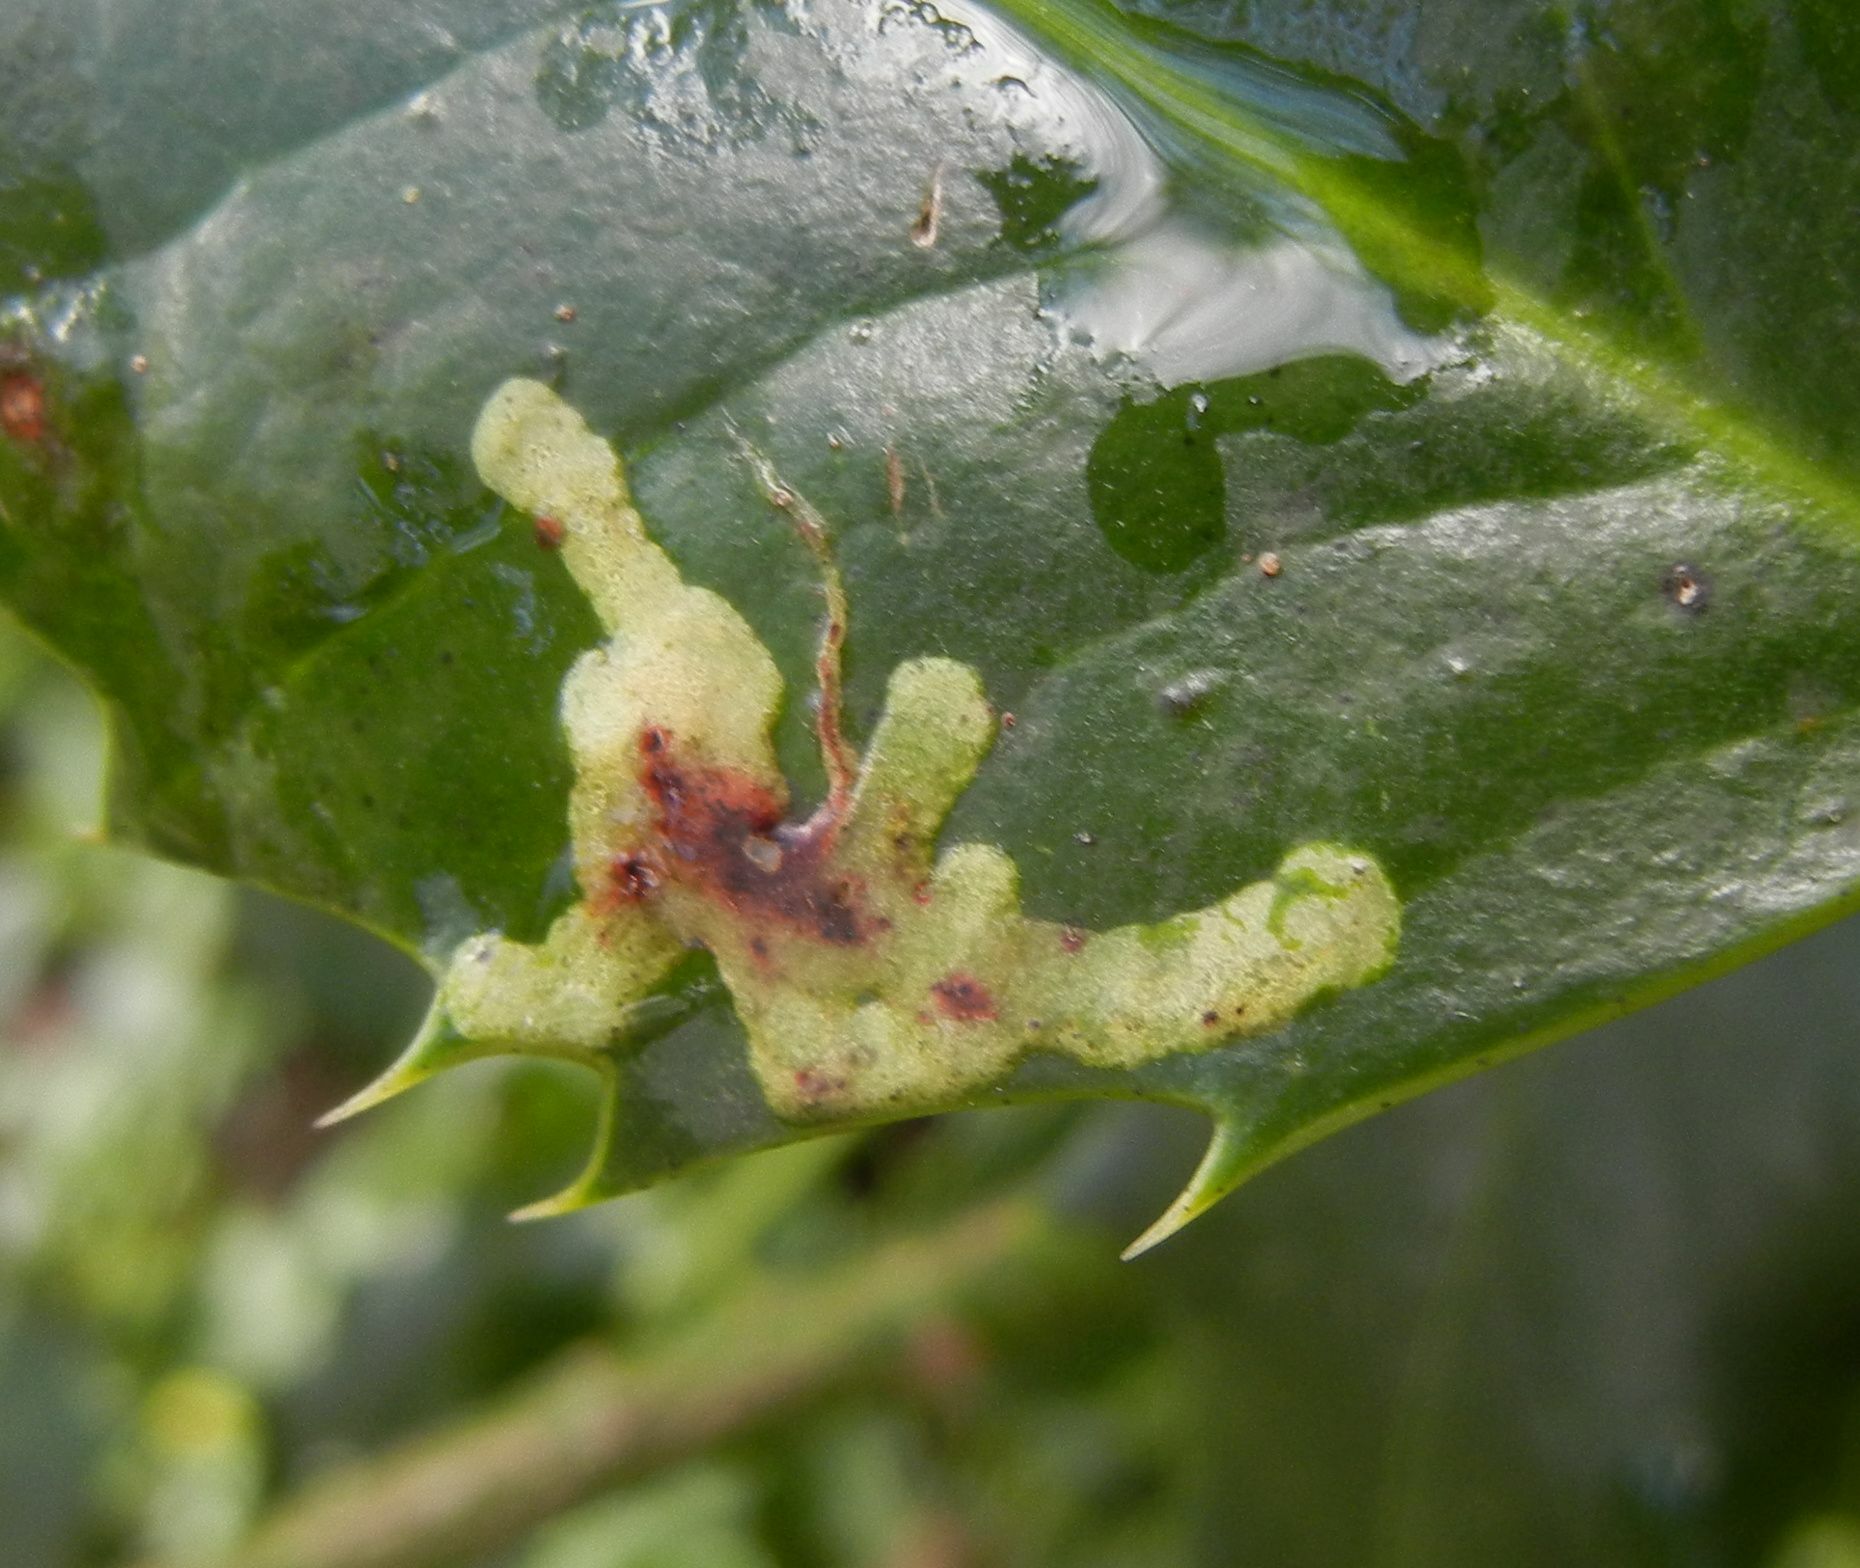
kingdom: Animalia
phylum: Arthropoda
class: Insecta
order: Diptera
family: Agromyzidae
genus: Phytomyza
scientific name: Phytomyza ilicis
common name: Holly leafminer
